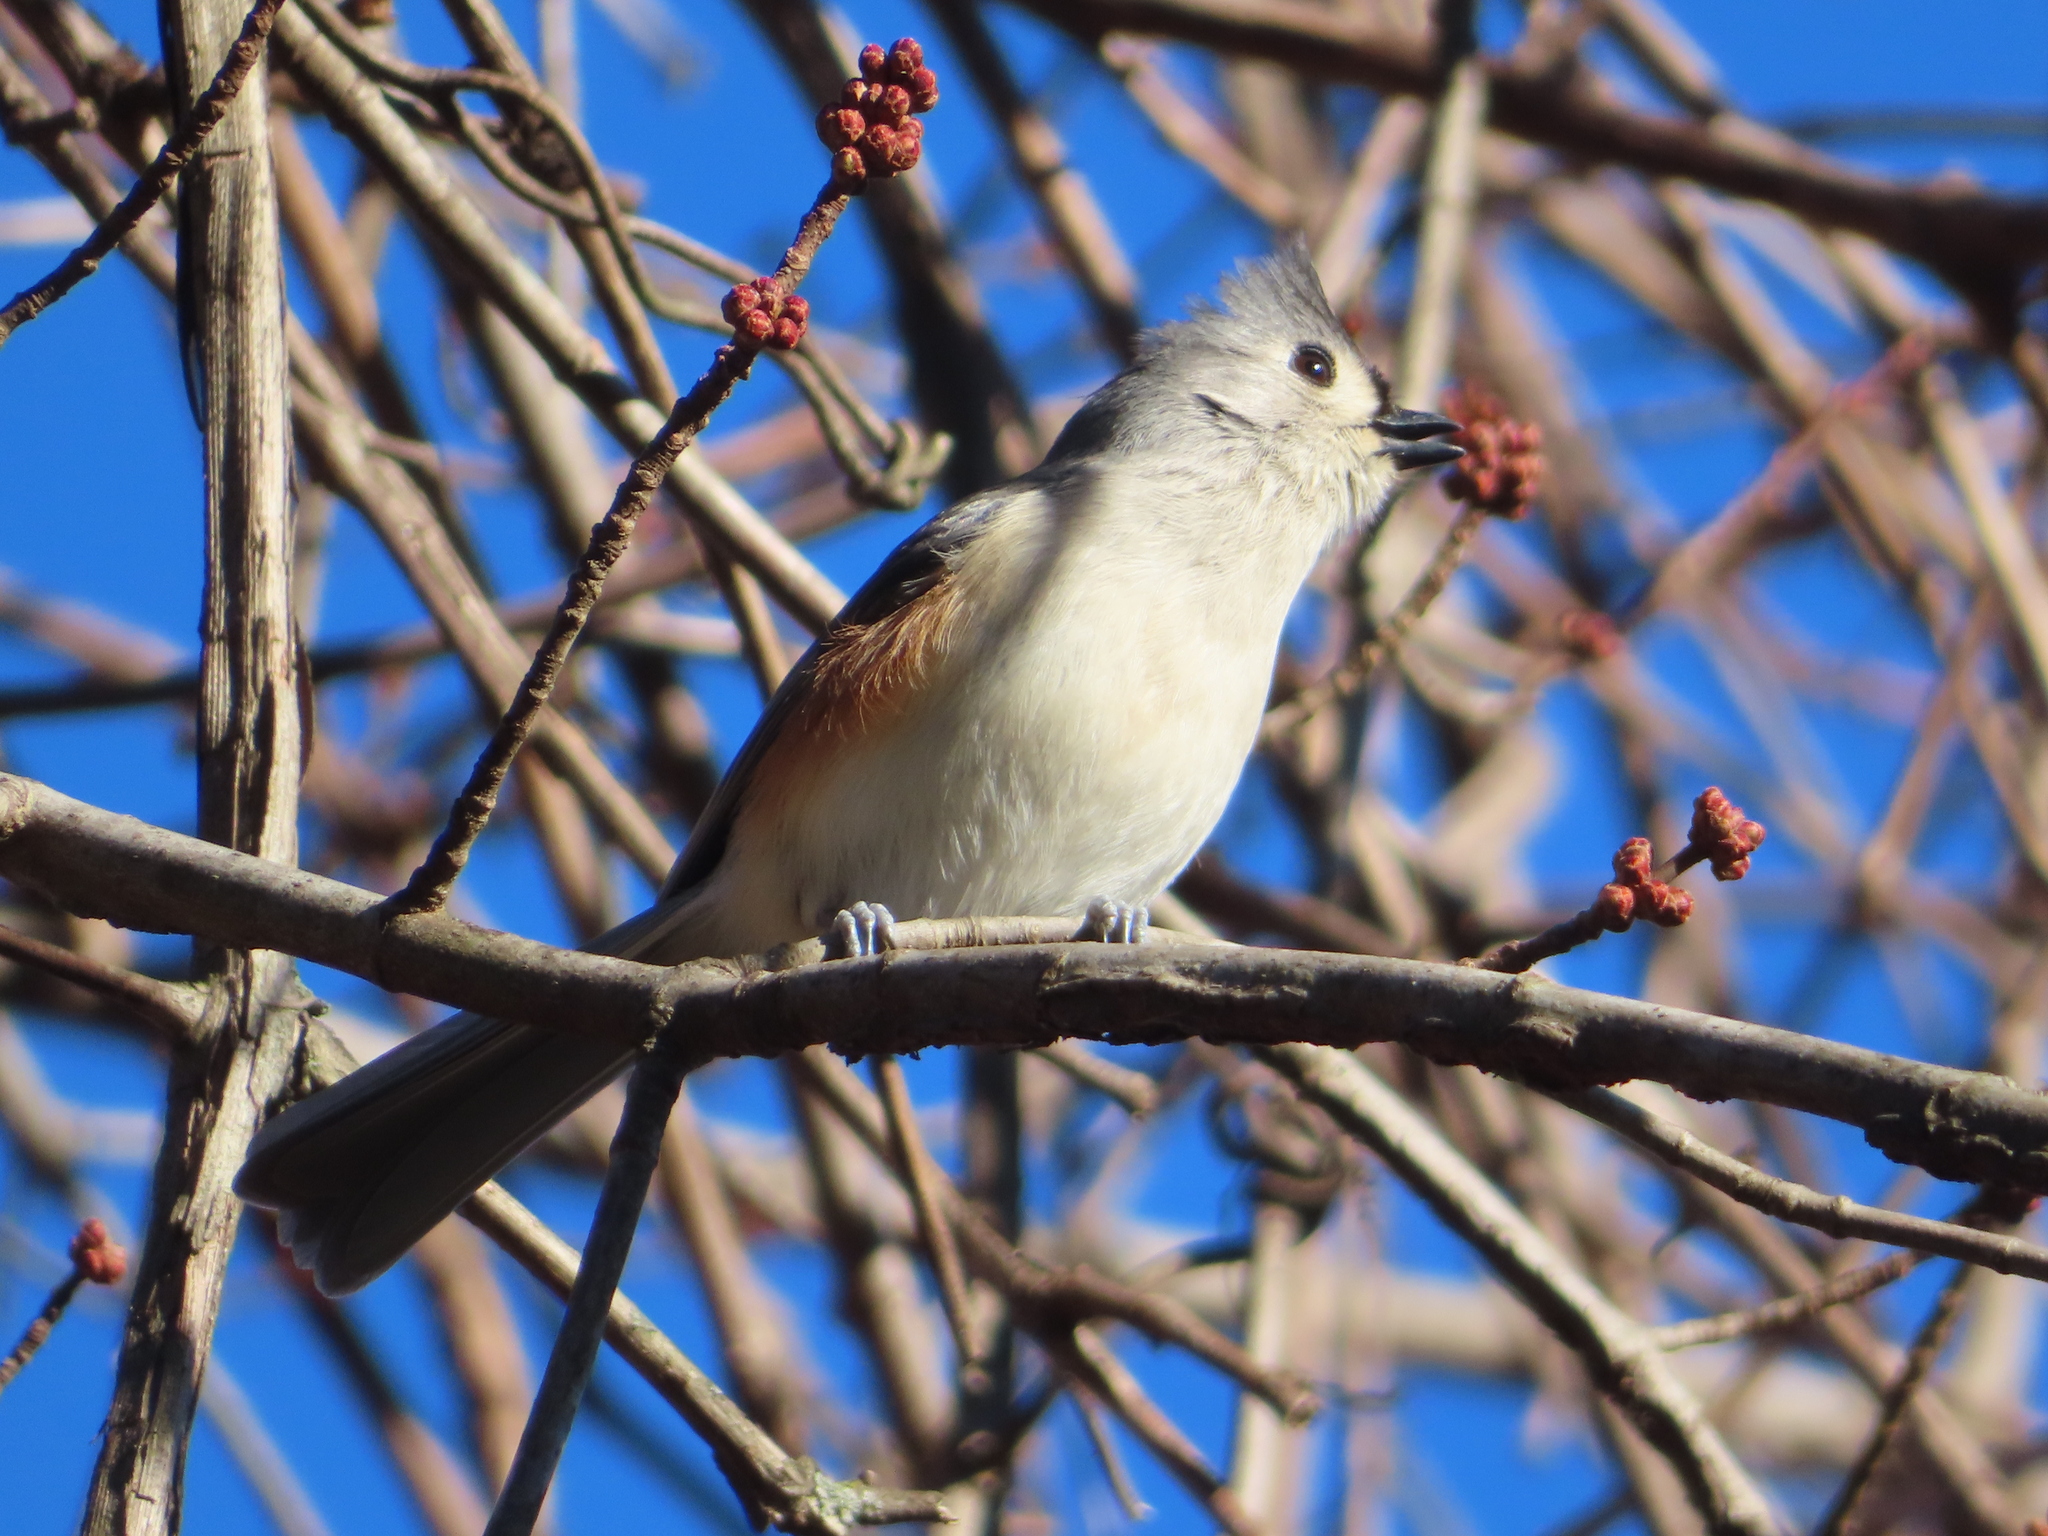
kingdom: Animalia
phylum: Chordata
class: Aves
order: Passeriformes
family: Paridae
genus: Baeolophus
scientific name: Baeolophus bicolor
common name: Tufted titmouse
